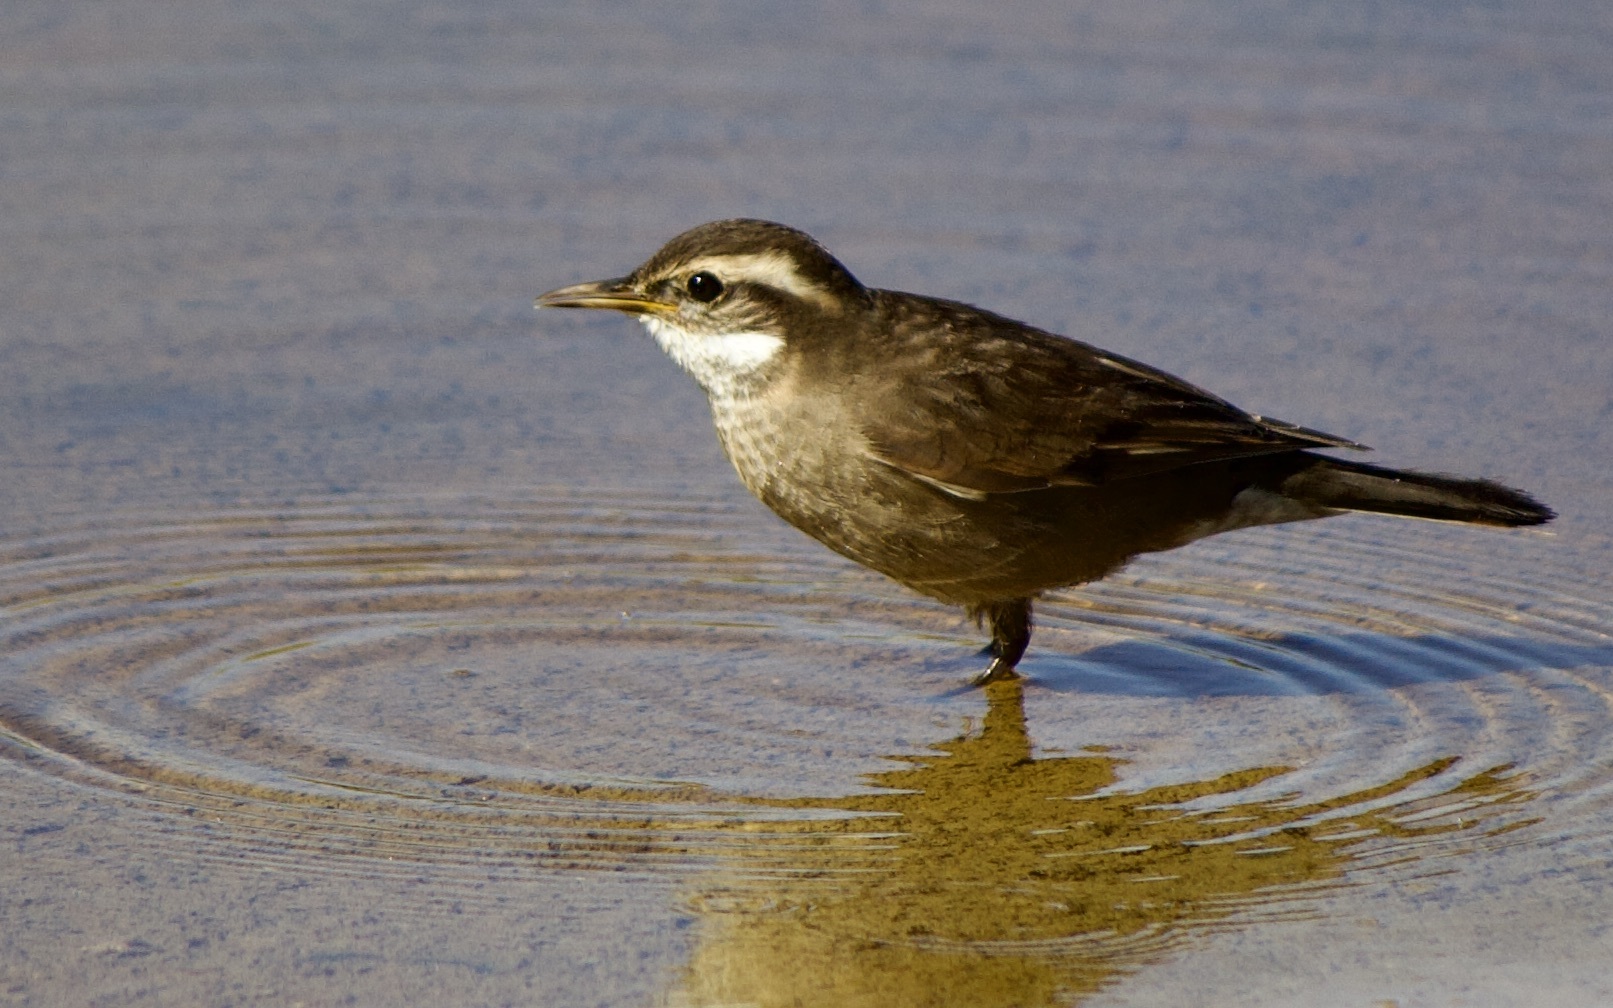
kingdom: Animalia
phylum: Chordata
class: Aves
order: Passeriformes
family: Furnariidae
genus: Cinclodes
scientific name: Cinclodes fuscus
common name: Buff-winged cinclodes
